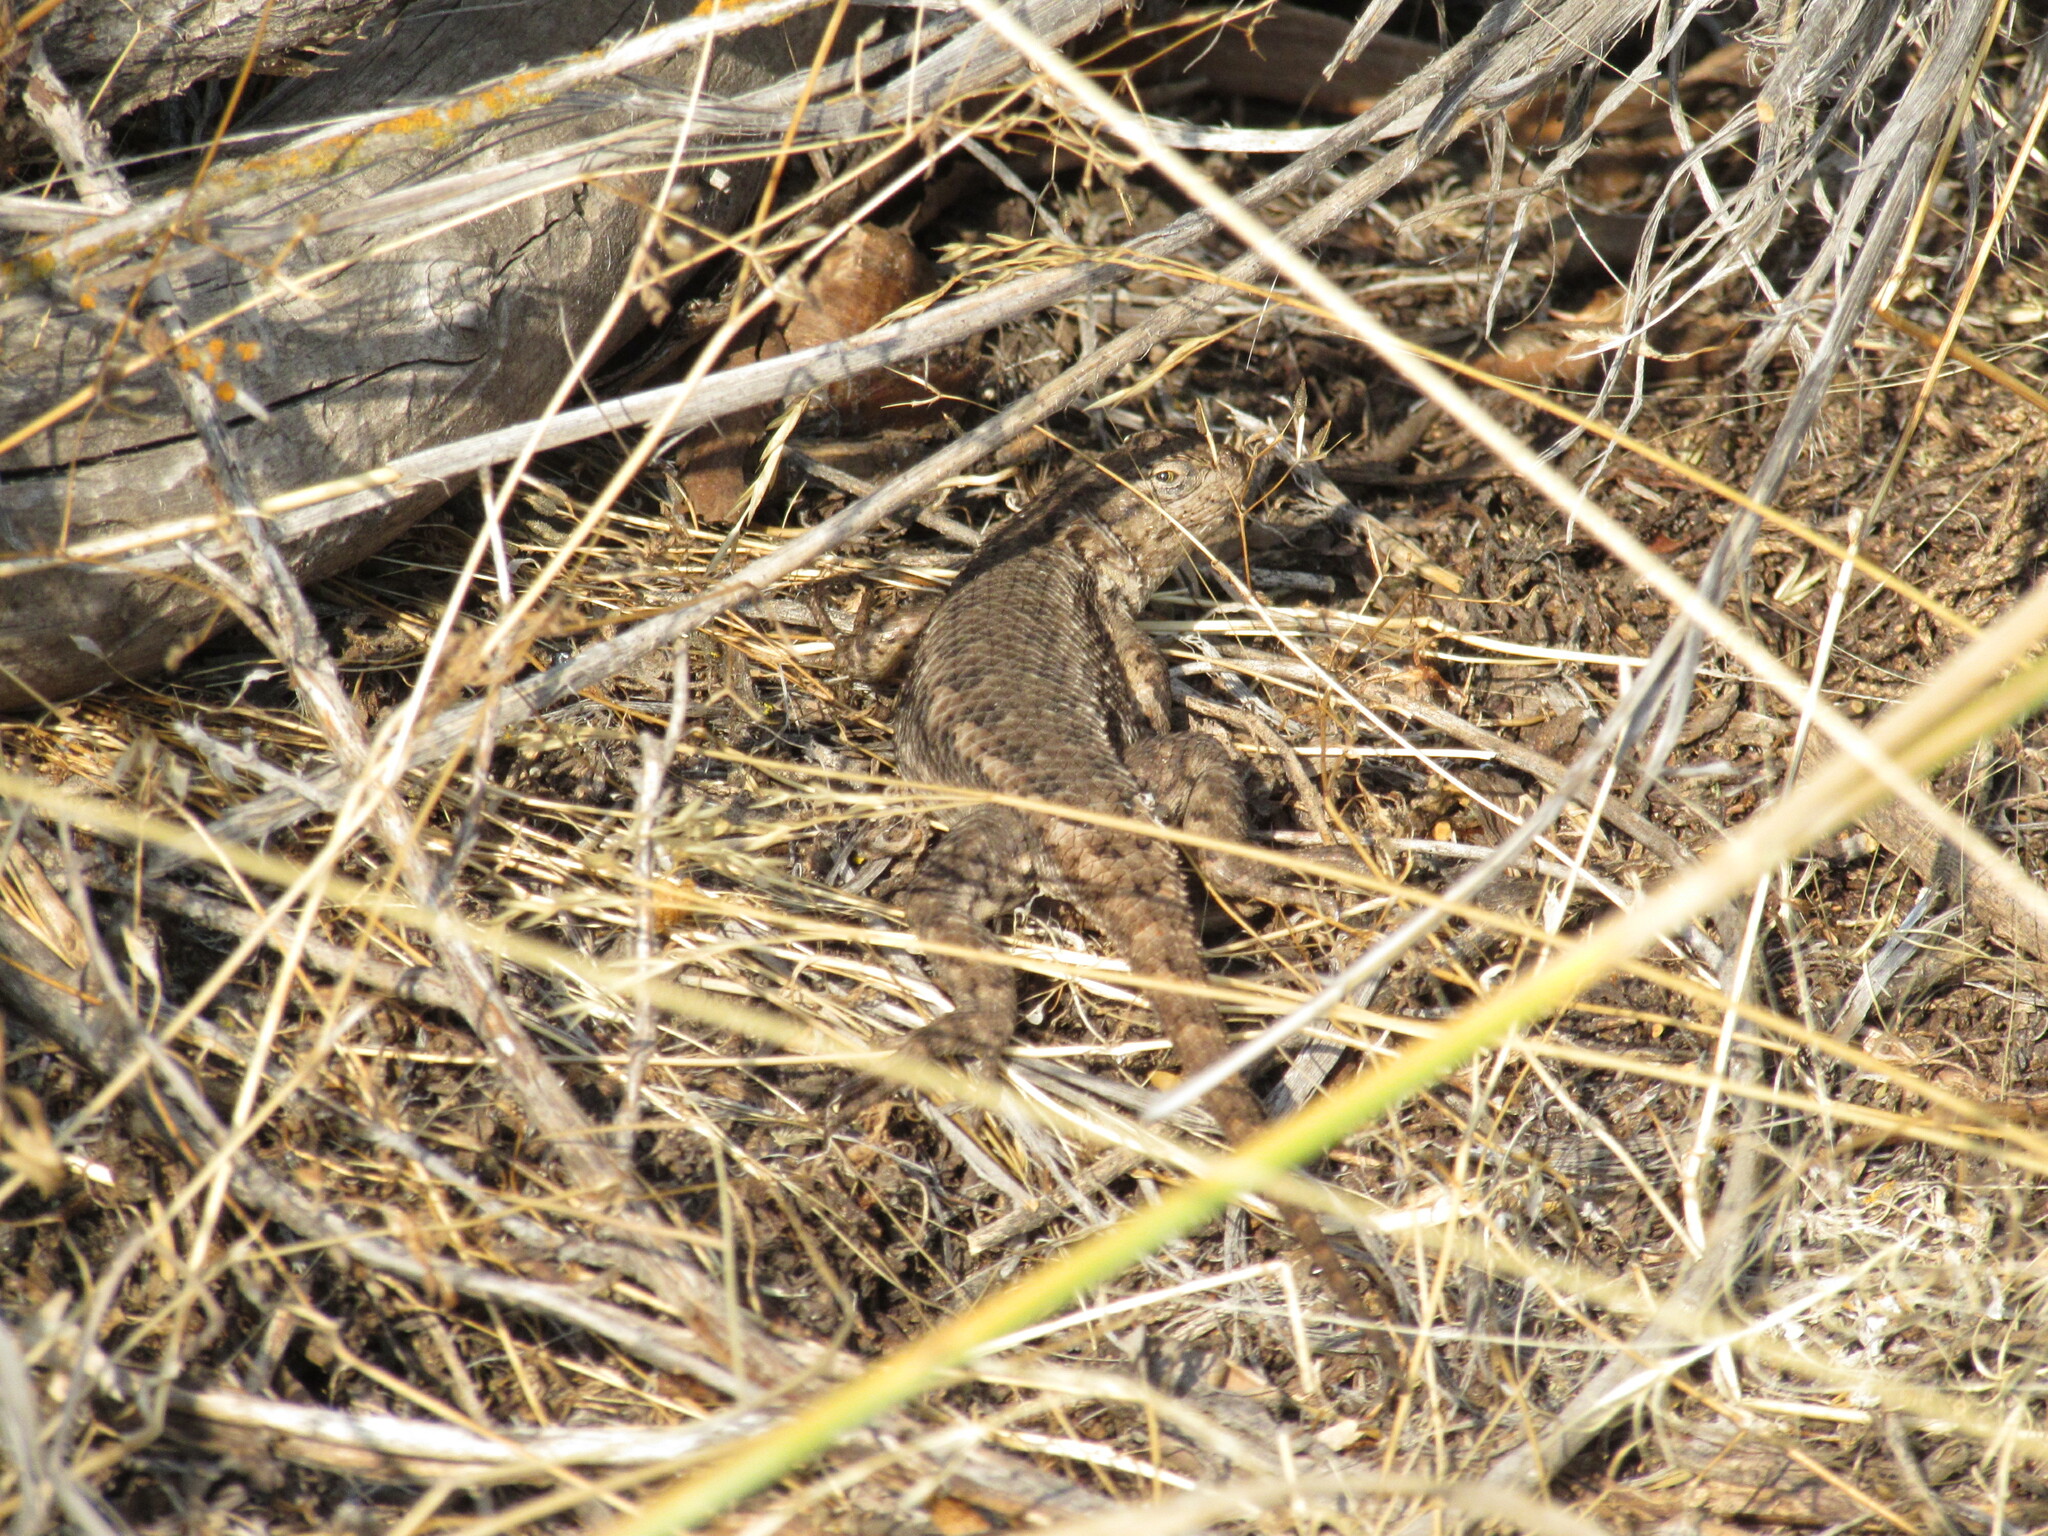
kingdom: Animalia
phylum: Chordata
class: Squamata
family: Phrynosomatidae
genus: Sceloporus
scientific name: Sceloporus occidentalis
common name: Western fence lizard
